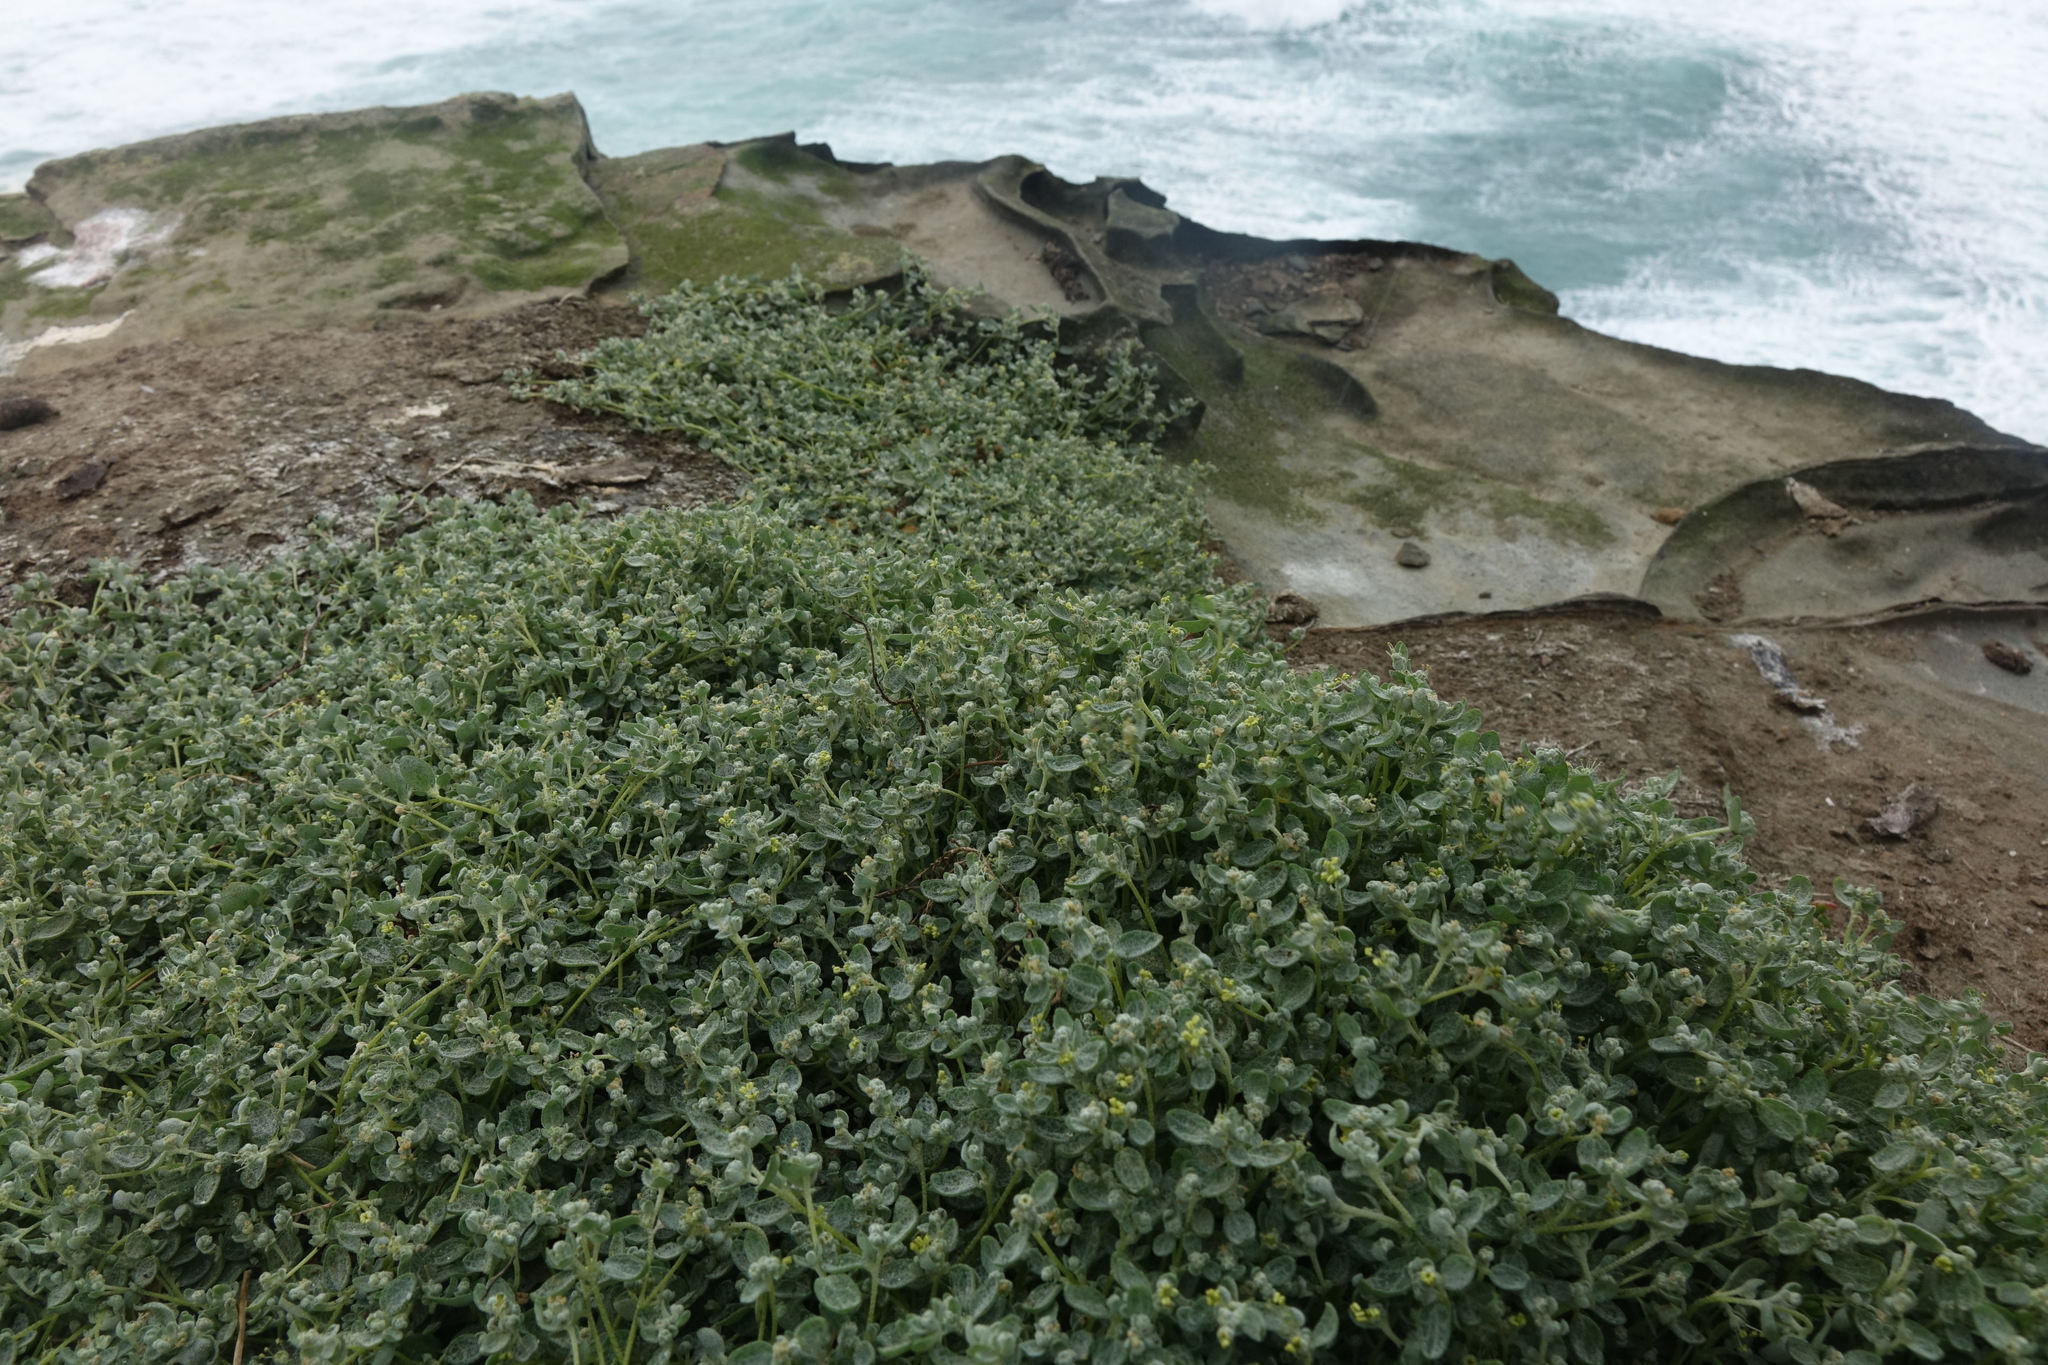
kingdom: Plantae
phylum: Tracheophyta
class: Magnoliopsida
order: Caryophyllales
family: Amaranthaceae
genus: Atriplex
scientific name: Atriplex buchananii
